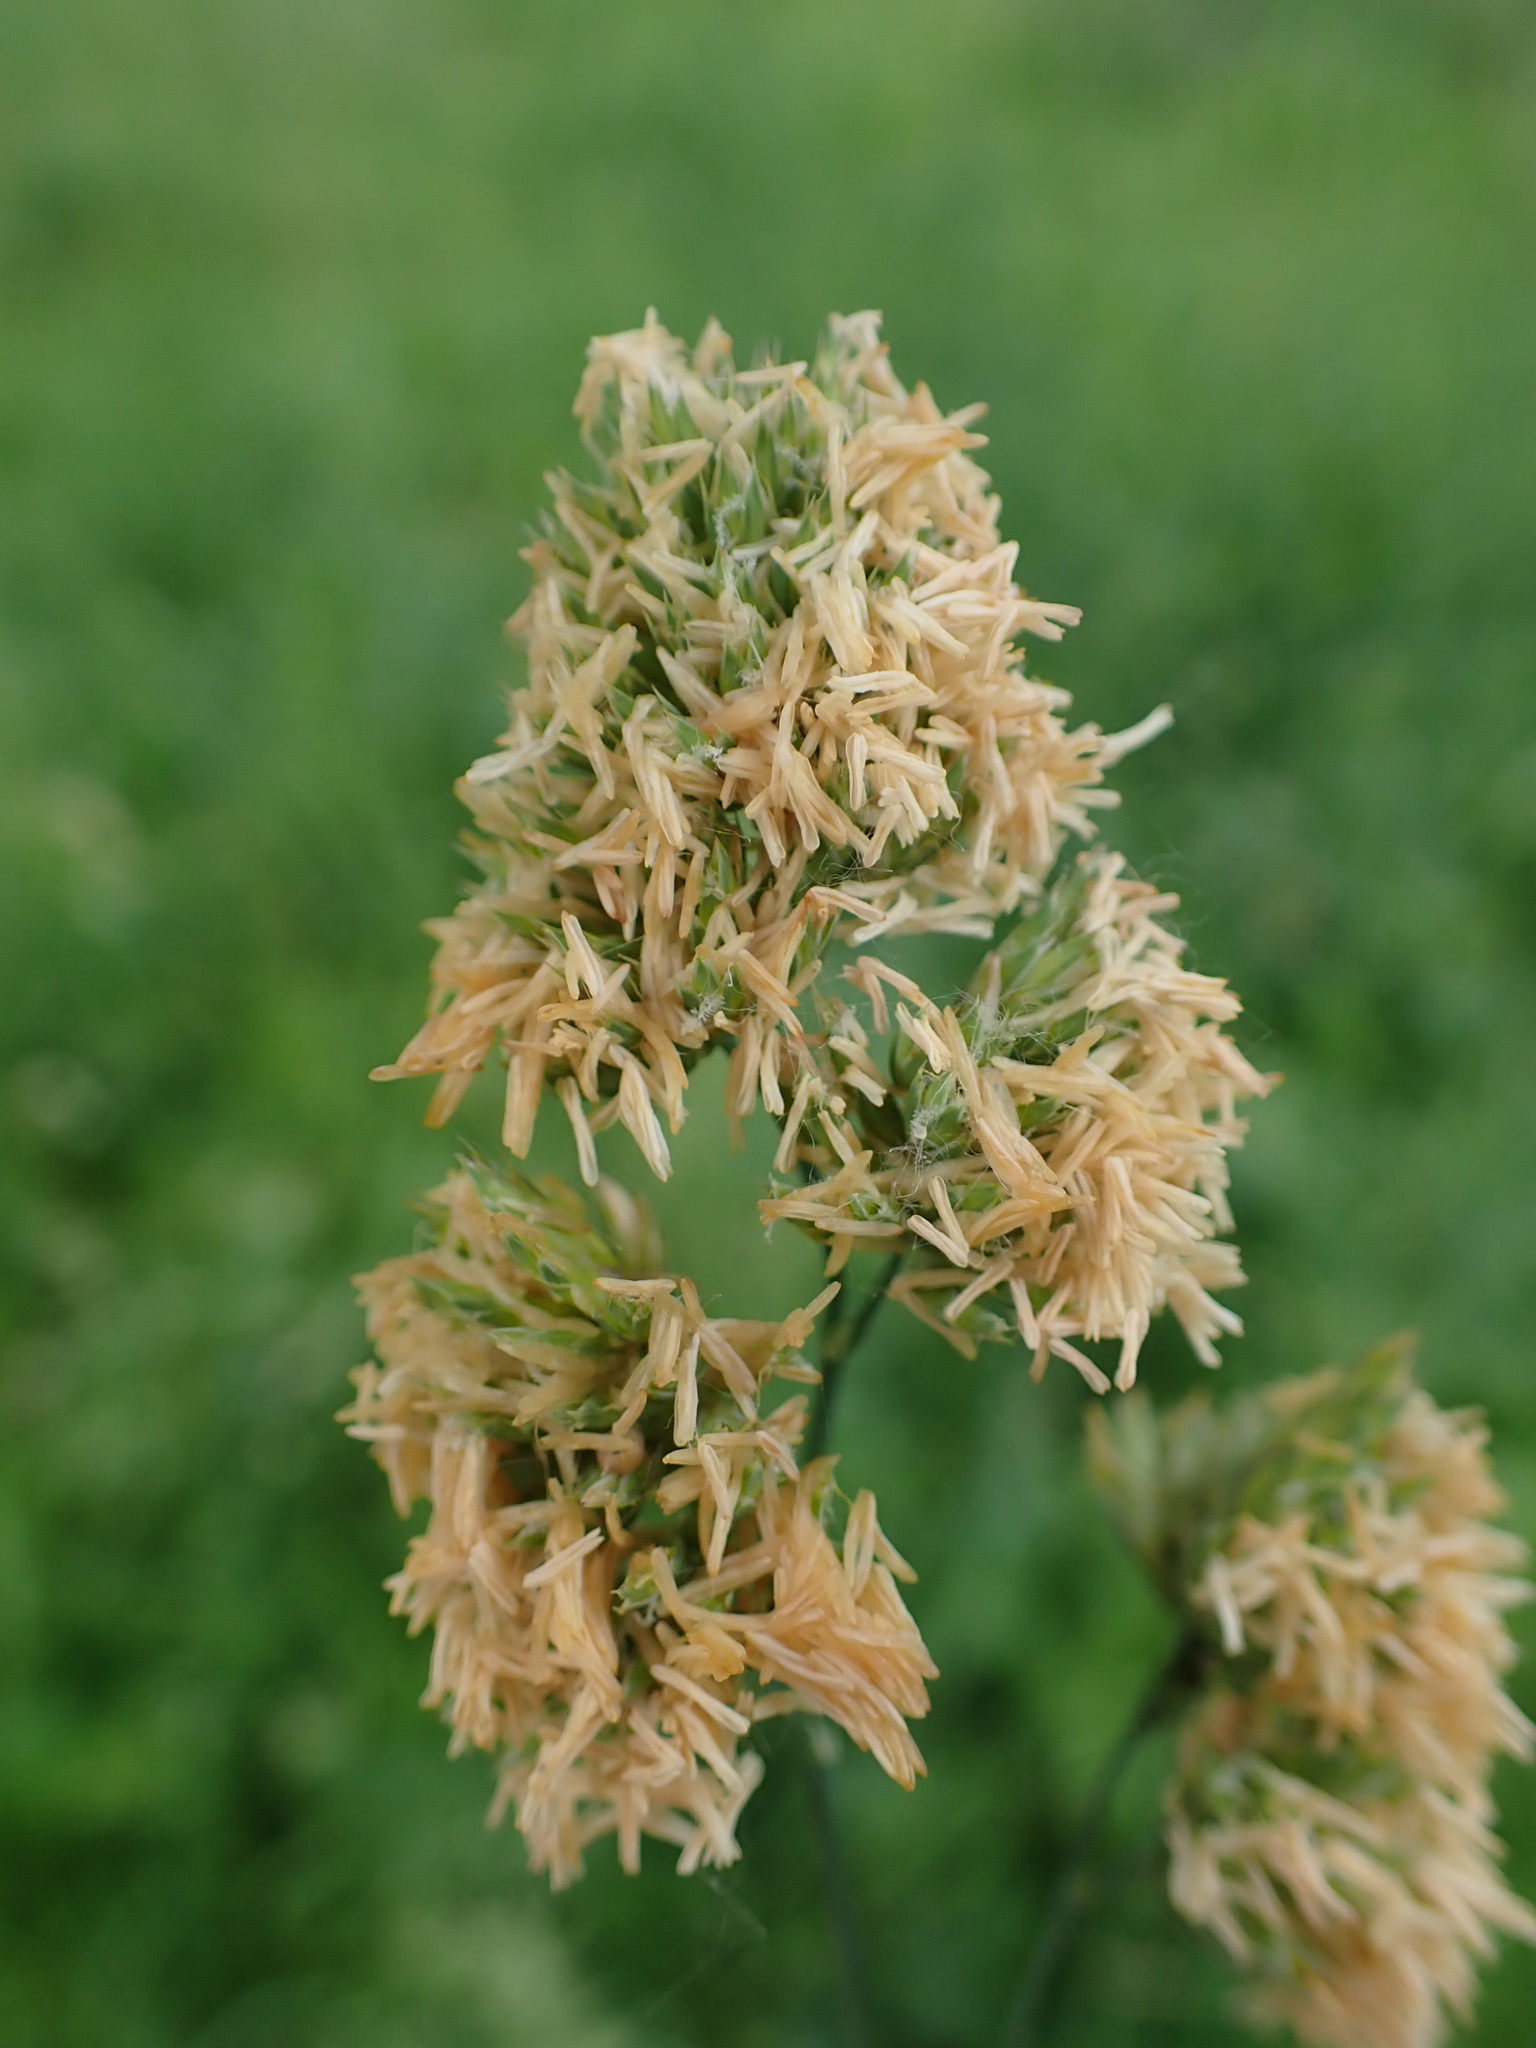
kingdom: Plantae
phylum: Tracheophyta
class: Liliopsida
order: Poales
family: Poaceae
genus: Dactylis
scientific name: Dactylis glomerata
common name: Orchardgrass
